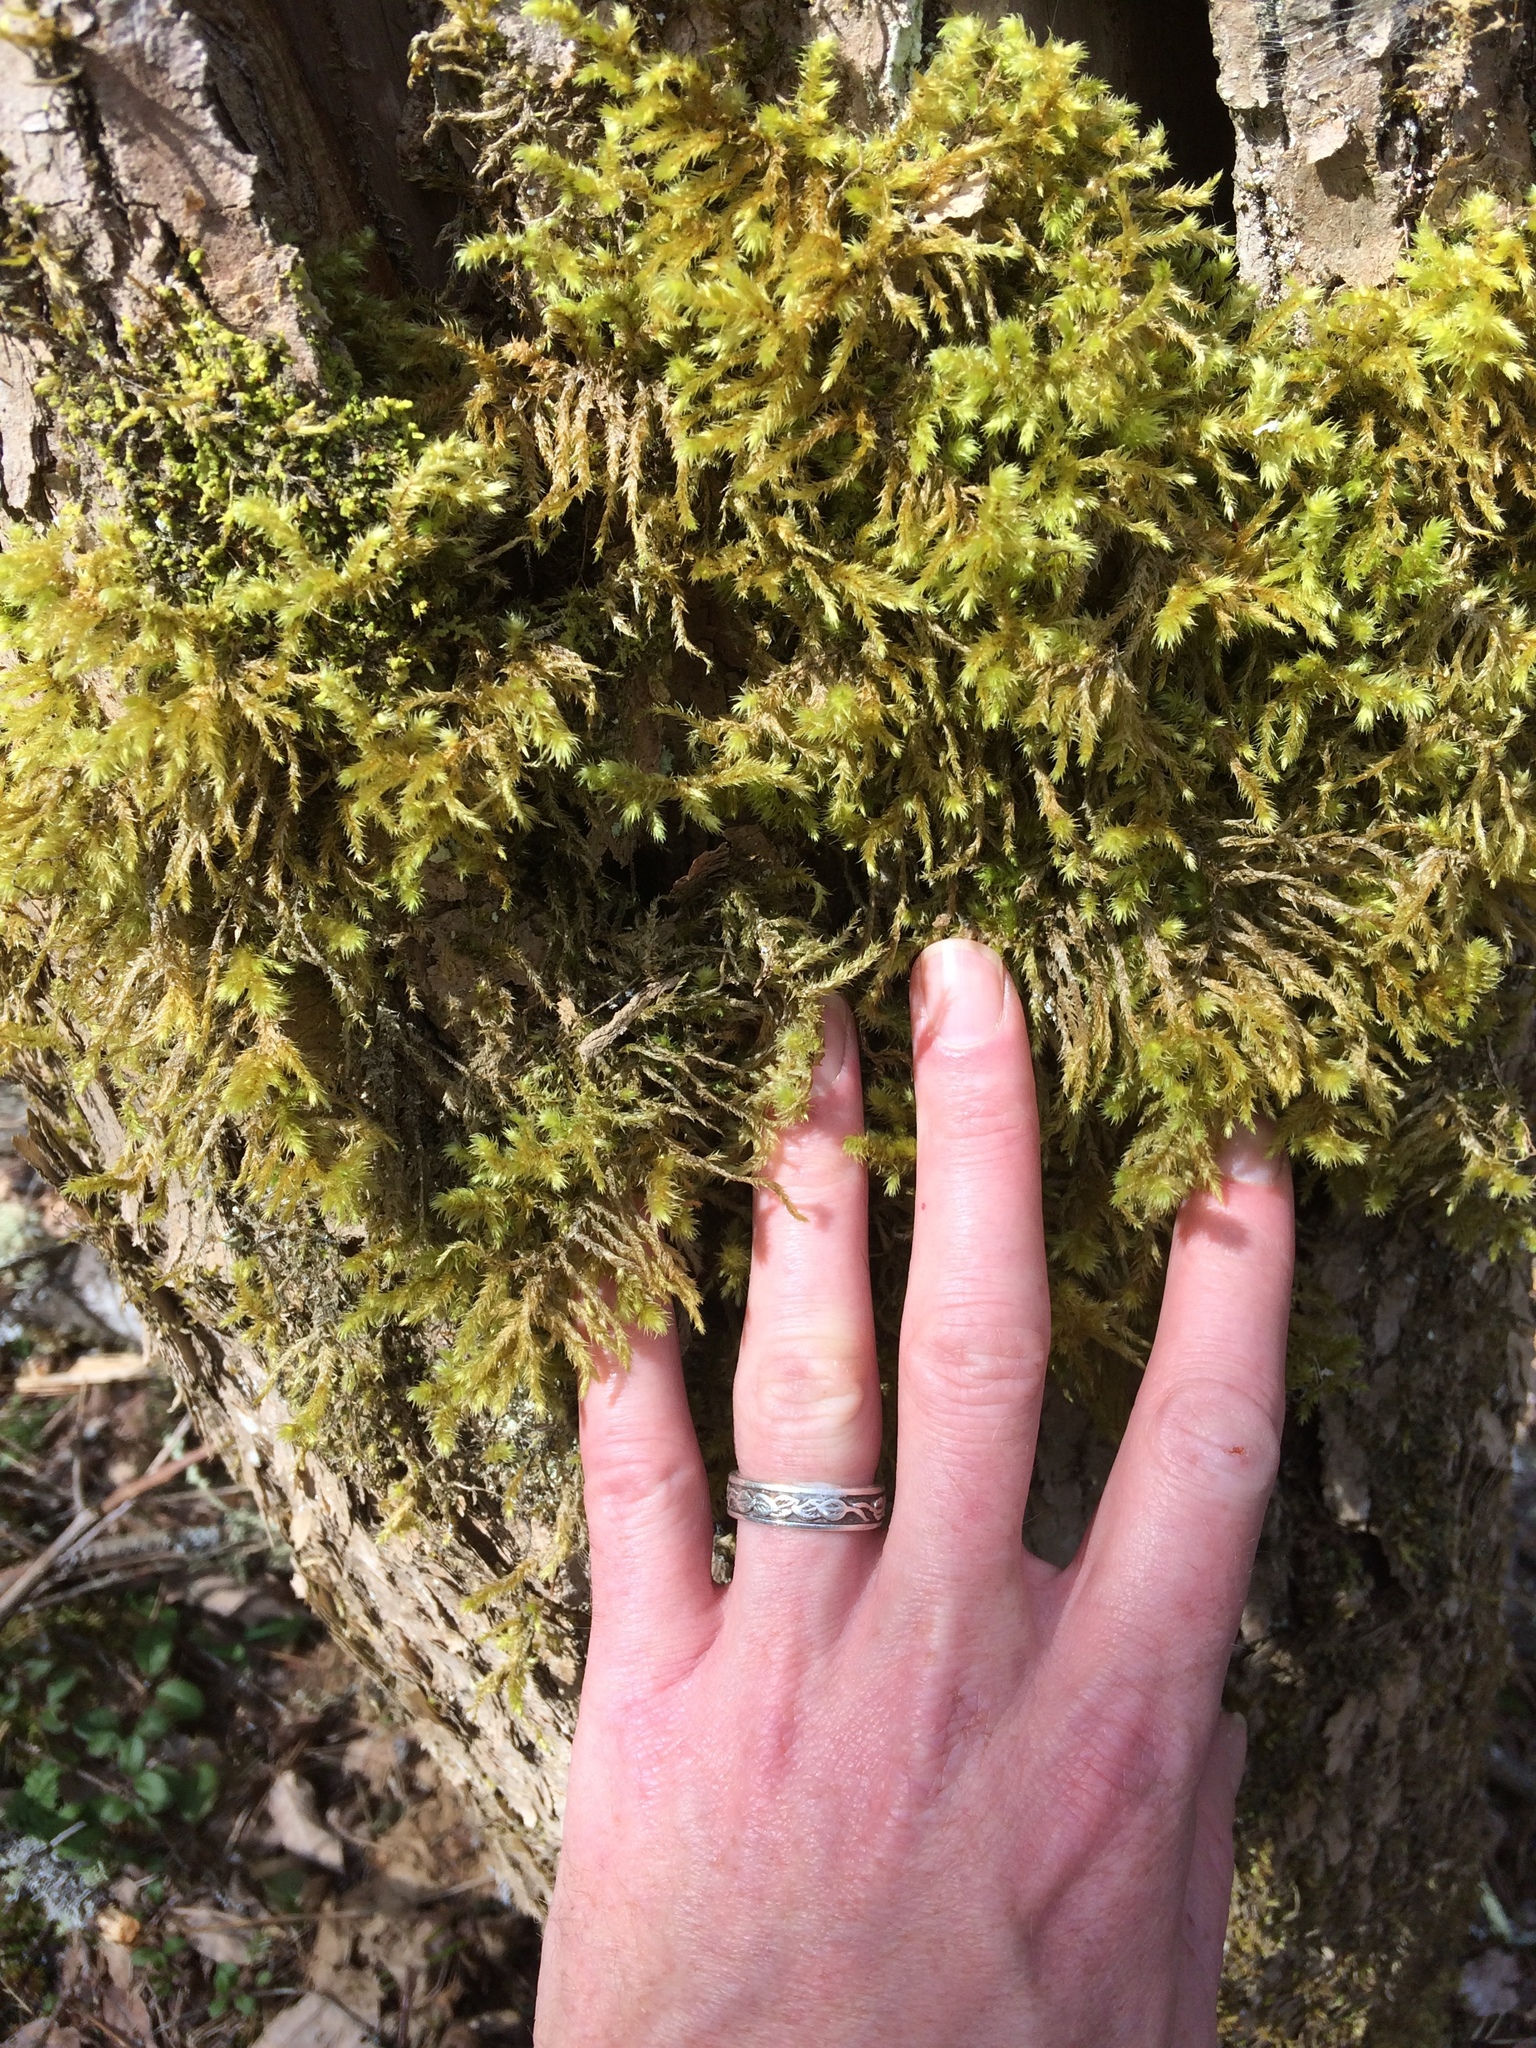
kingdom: Plantae
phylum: Bryophyta
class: Bryopsida
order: Hypnales
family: Hylocomiaceae
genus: Hylocomiadelphus
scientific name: Hylocomiadelphus triquetrus
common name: Rough goose neck moss
